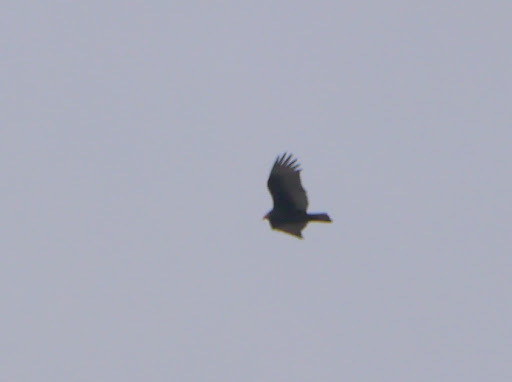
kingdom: Animalia
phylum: Chordata
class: Aves
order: Accipitriformes
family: Cathartidae
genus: Cathartes
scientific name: Cathartes aura
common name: Turkey vulture
